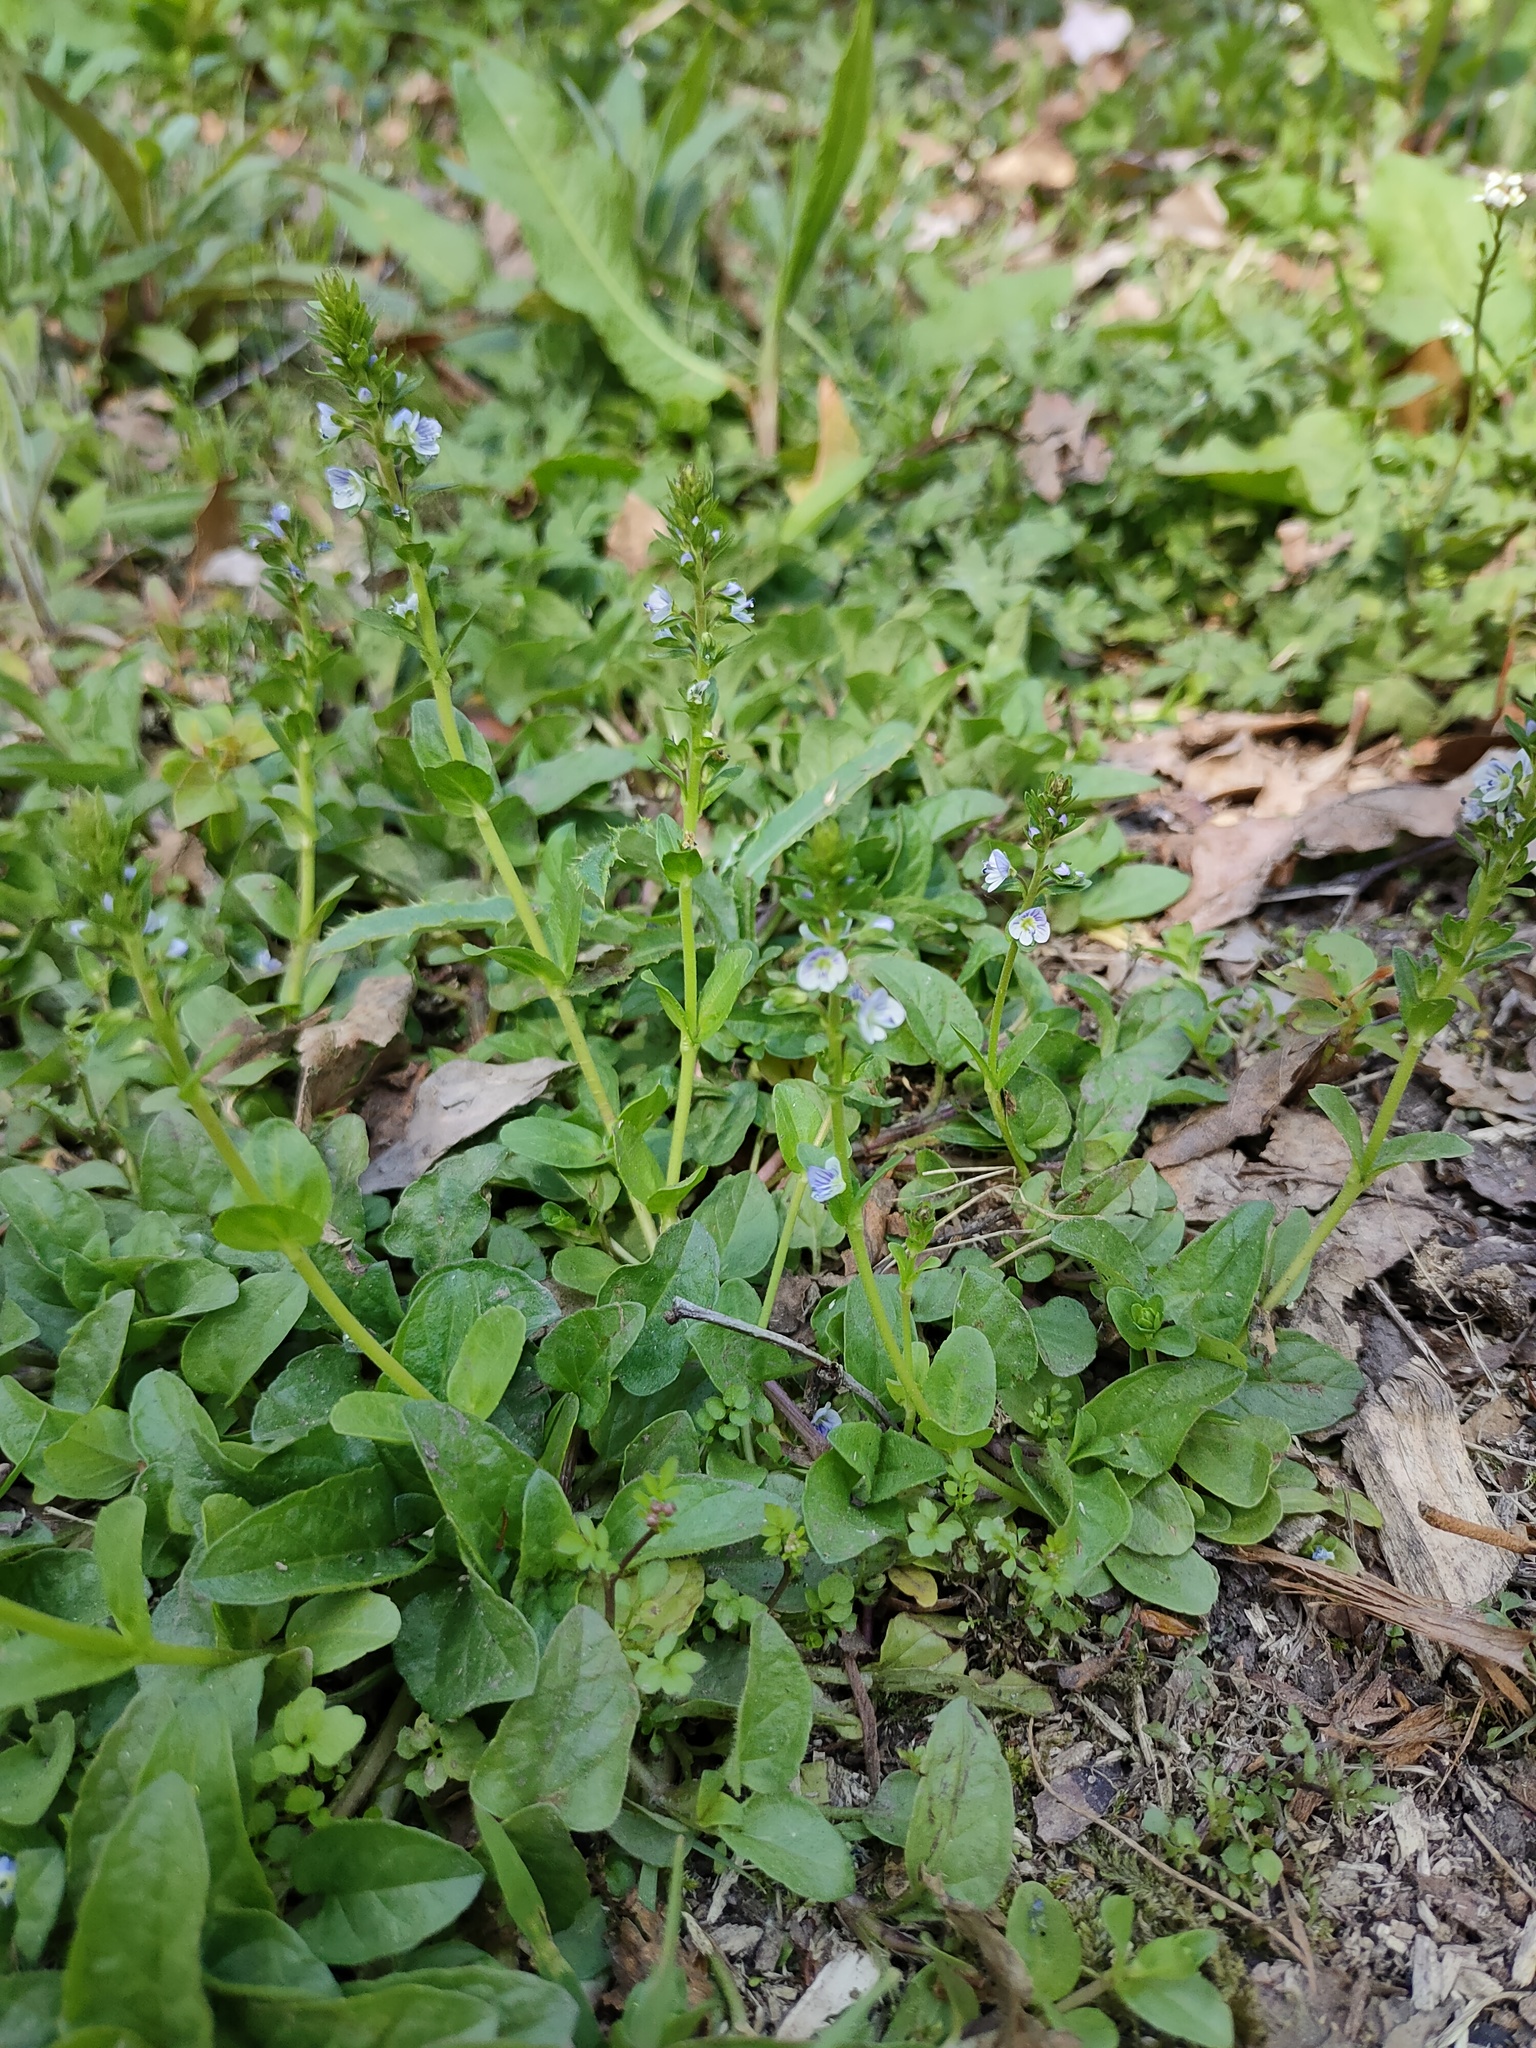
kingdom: Plantae
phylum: Tracheophyta
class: Magnoliopsida
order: Lamiales
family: Plantaginaceae
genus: Veronica
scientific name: Veronica serpyllifolia
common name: Thyme-leaved speedwell
